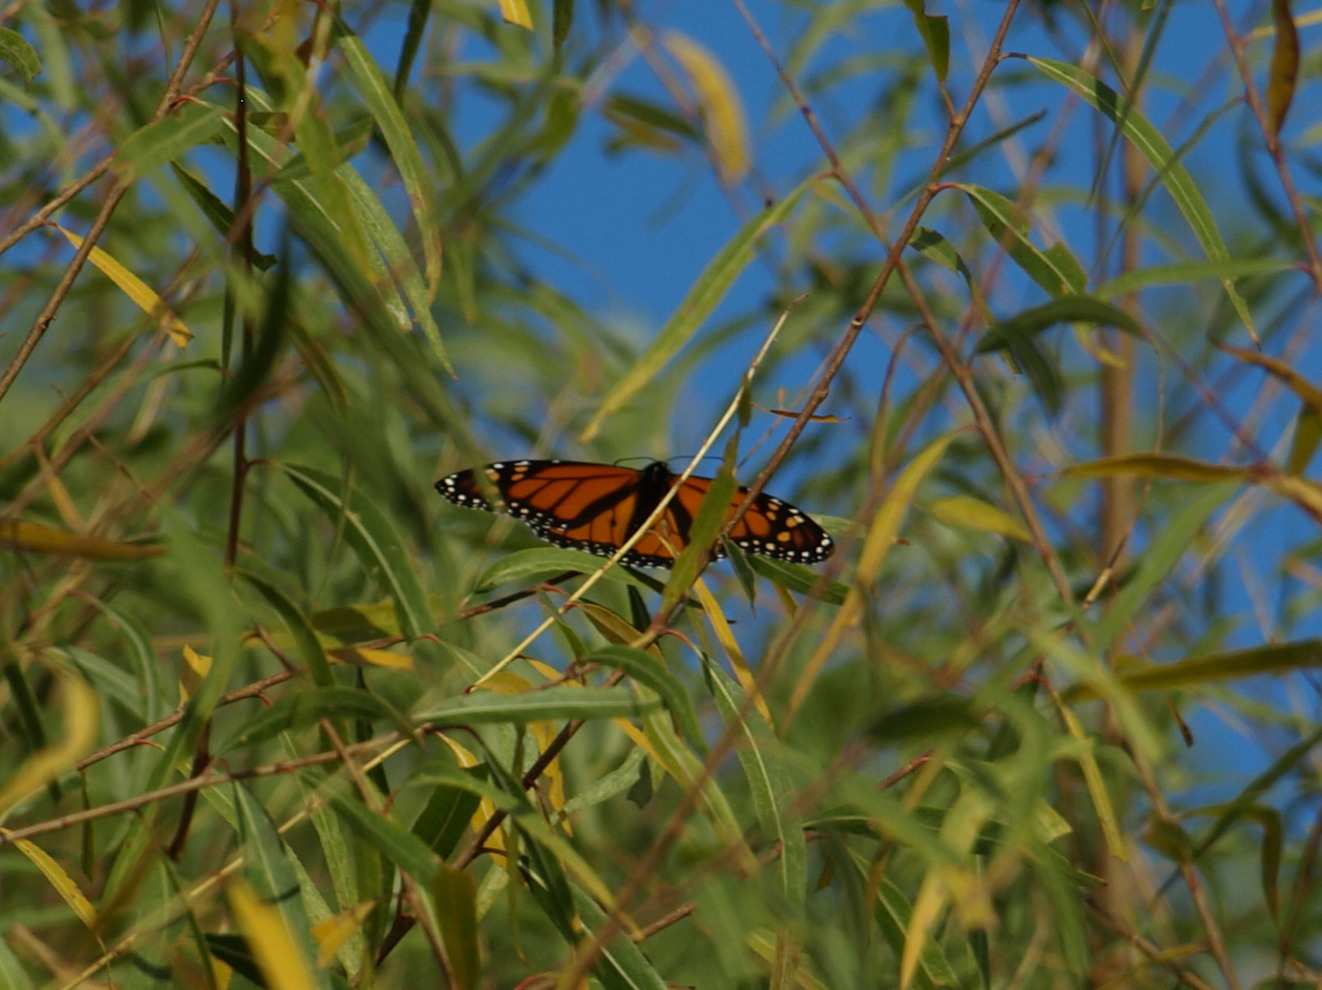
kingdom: Animalia
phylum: Arthropoda
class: Insecta
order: Lepidoptera
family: Nymphalidae
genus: Danaus
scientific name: Danaus plexippus
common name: Monarch
